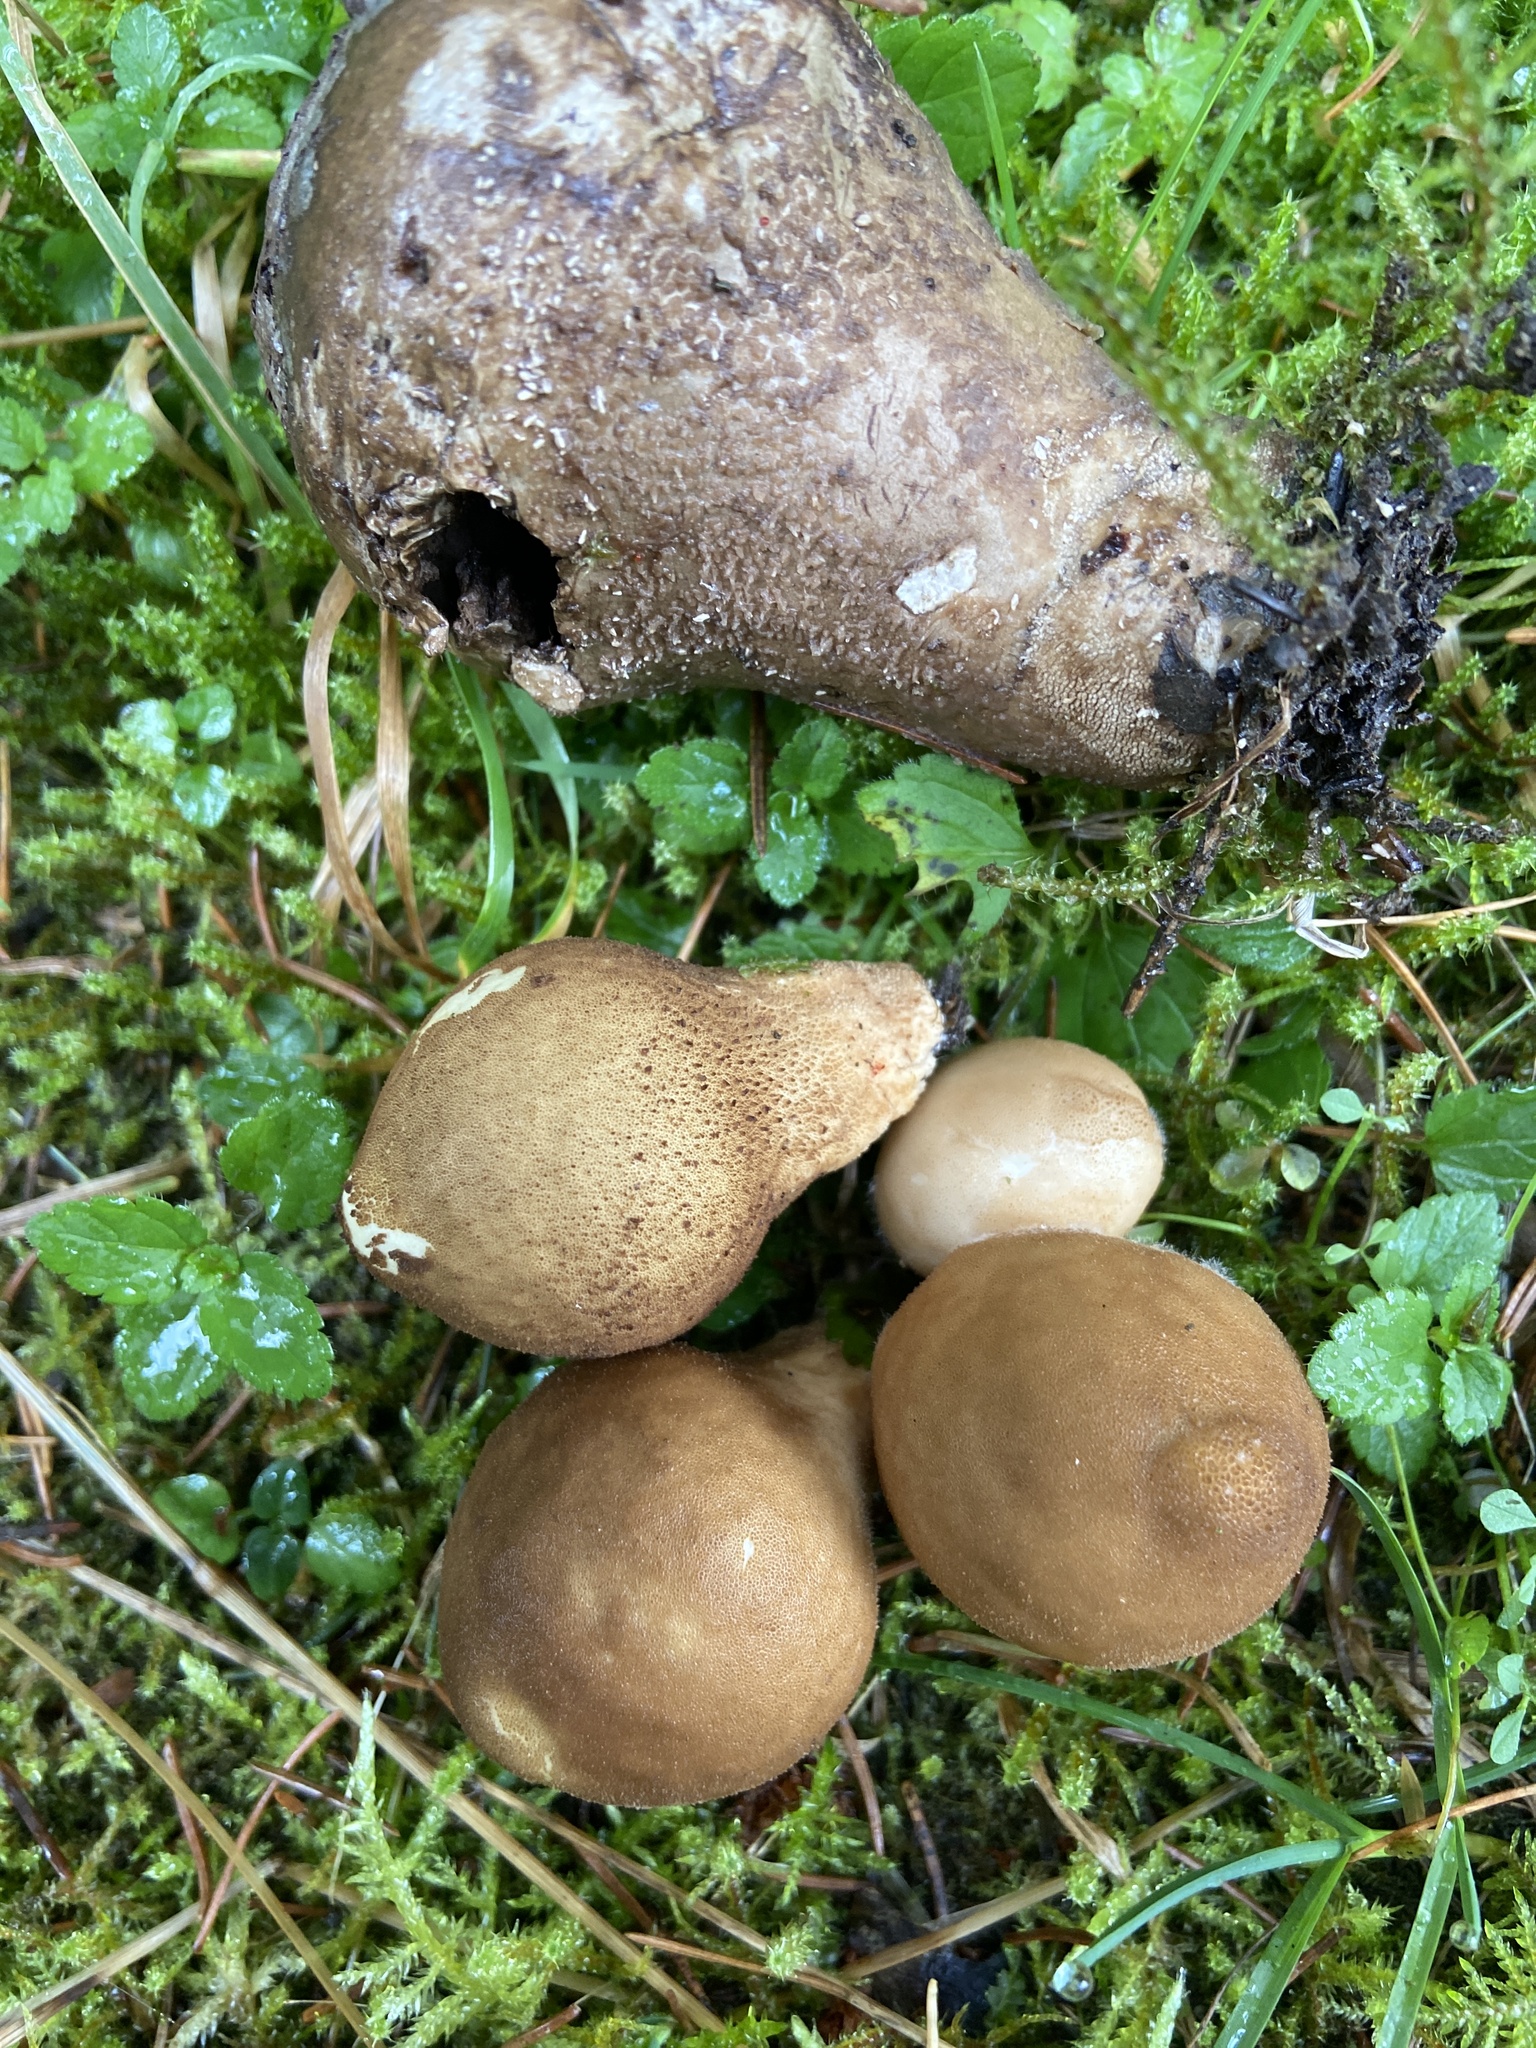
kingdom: Fungi
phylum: Basidiomycota
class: Agaricomycetes
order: Agaricales
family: Lycoperdaceae
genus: Apioperdon
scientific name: Apioperdon pyriforme
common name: Pear-shaped puffball
